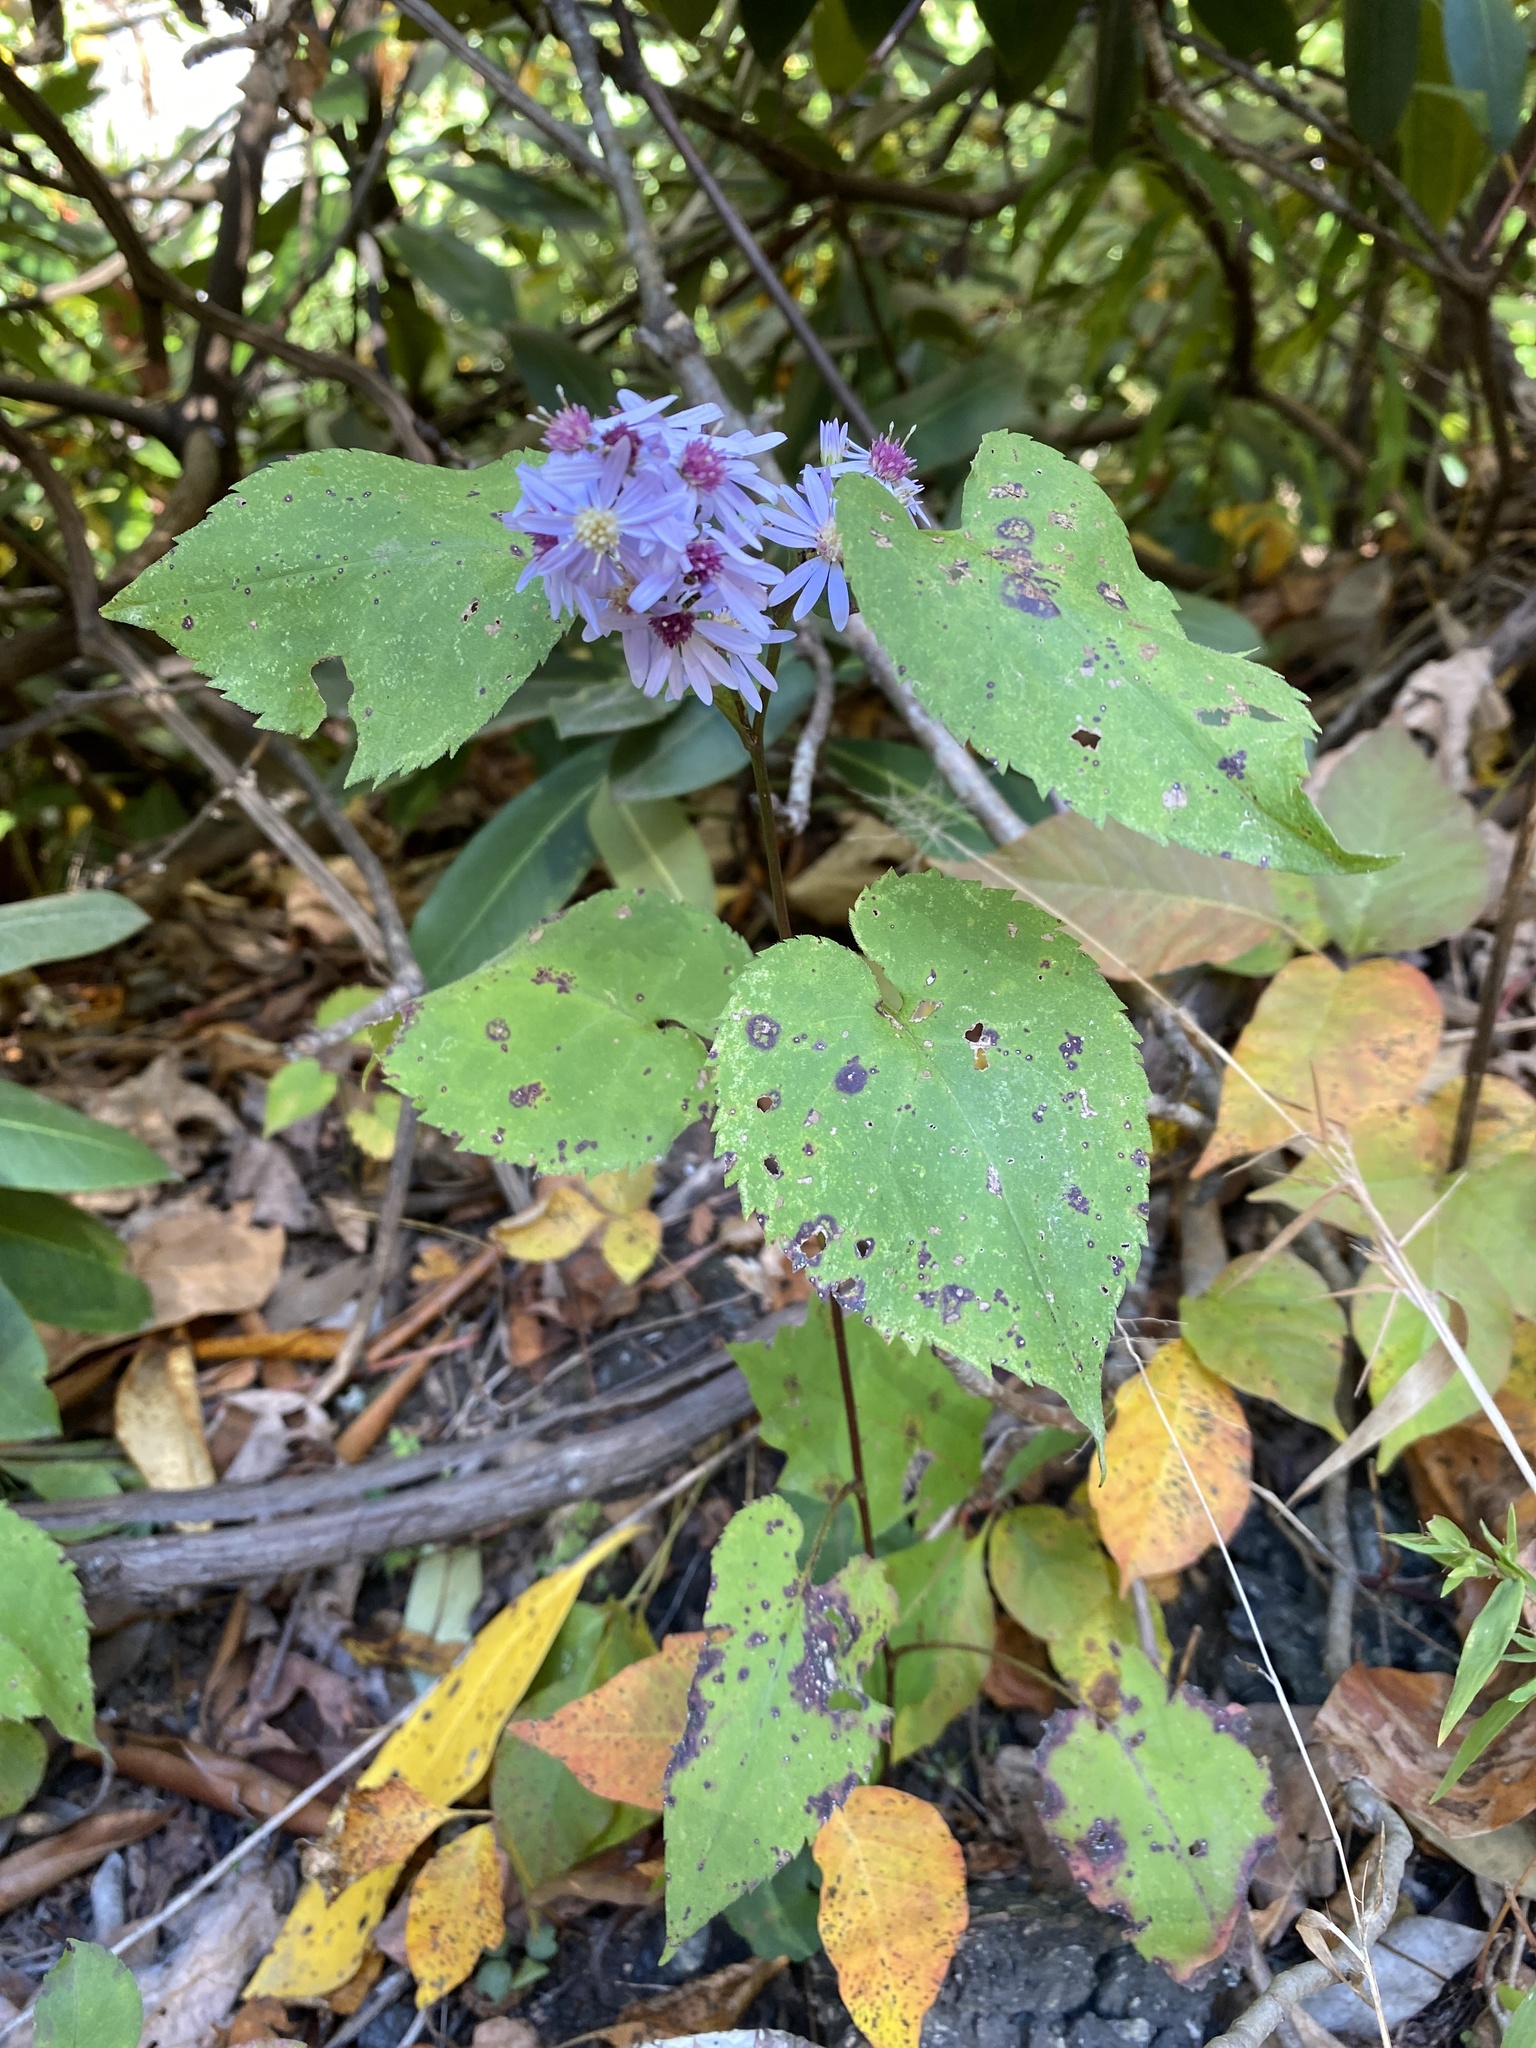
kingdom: Plantae
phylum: Tracheophyta
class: Magnoliopsida
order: Asterales
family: Asteraceae
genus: Symphyotrichum
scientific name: Symphyotrichum cordifolium
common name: Beeweed
